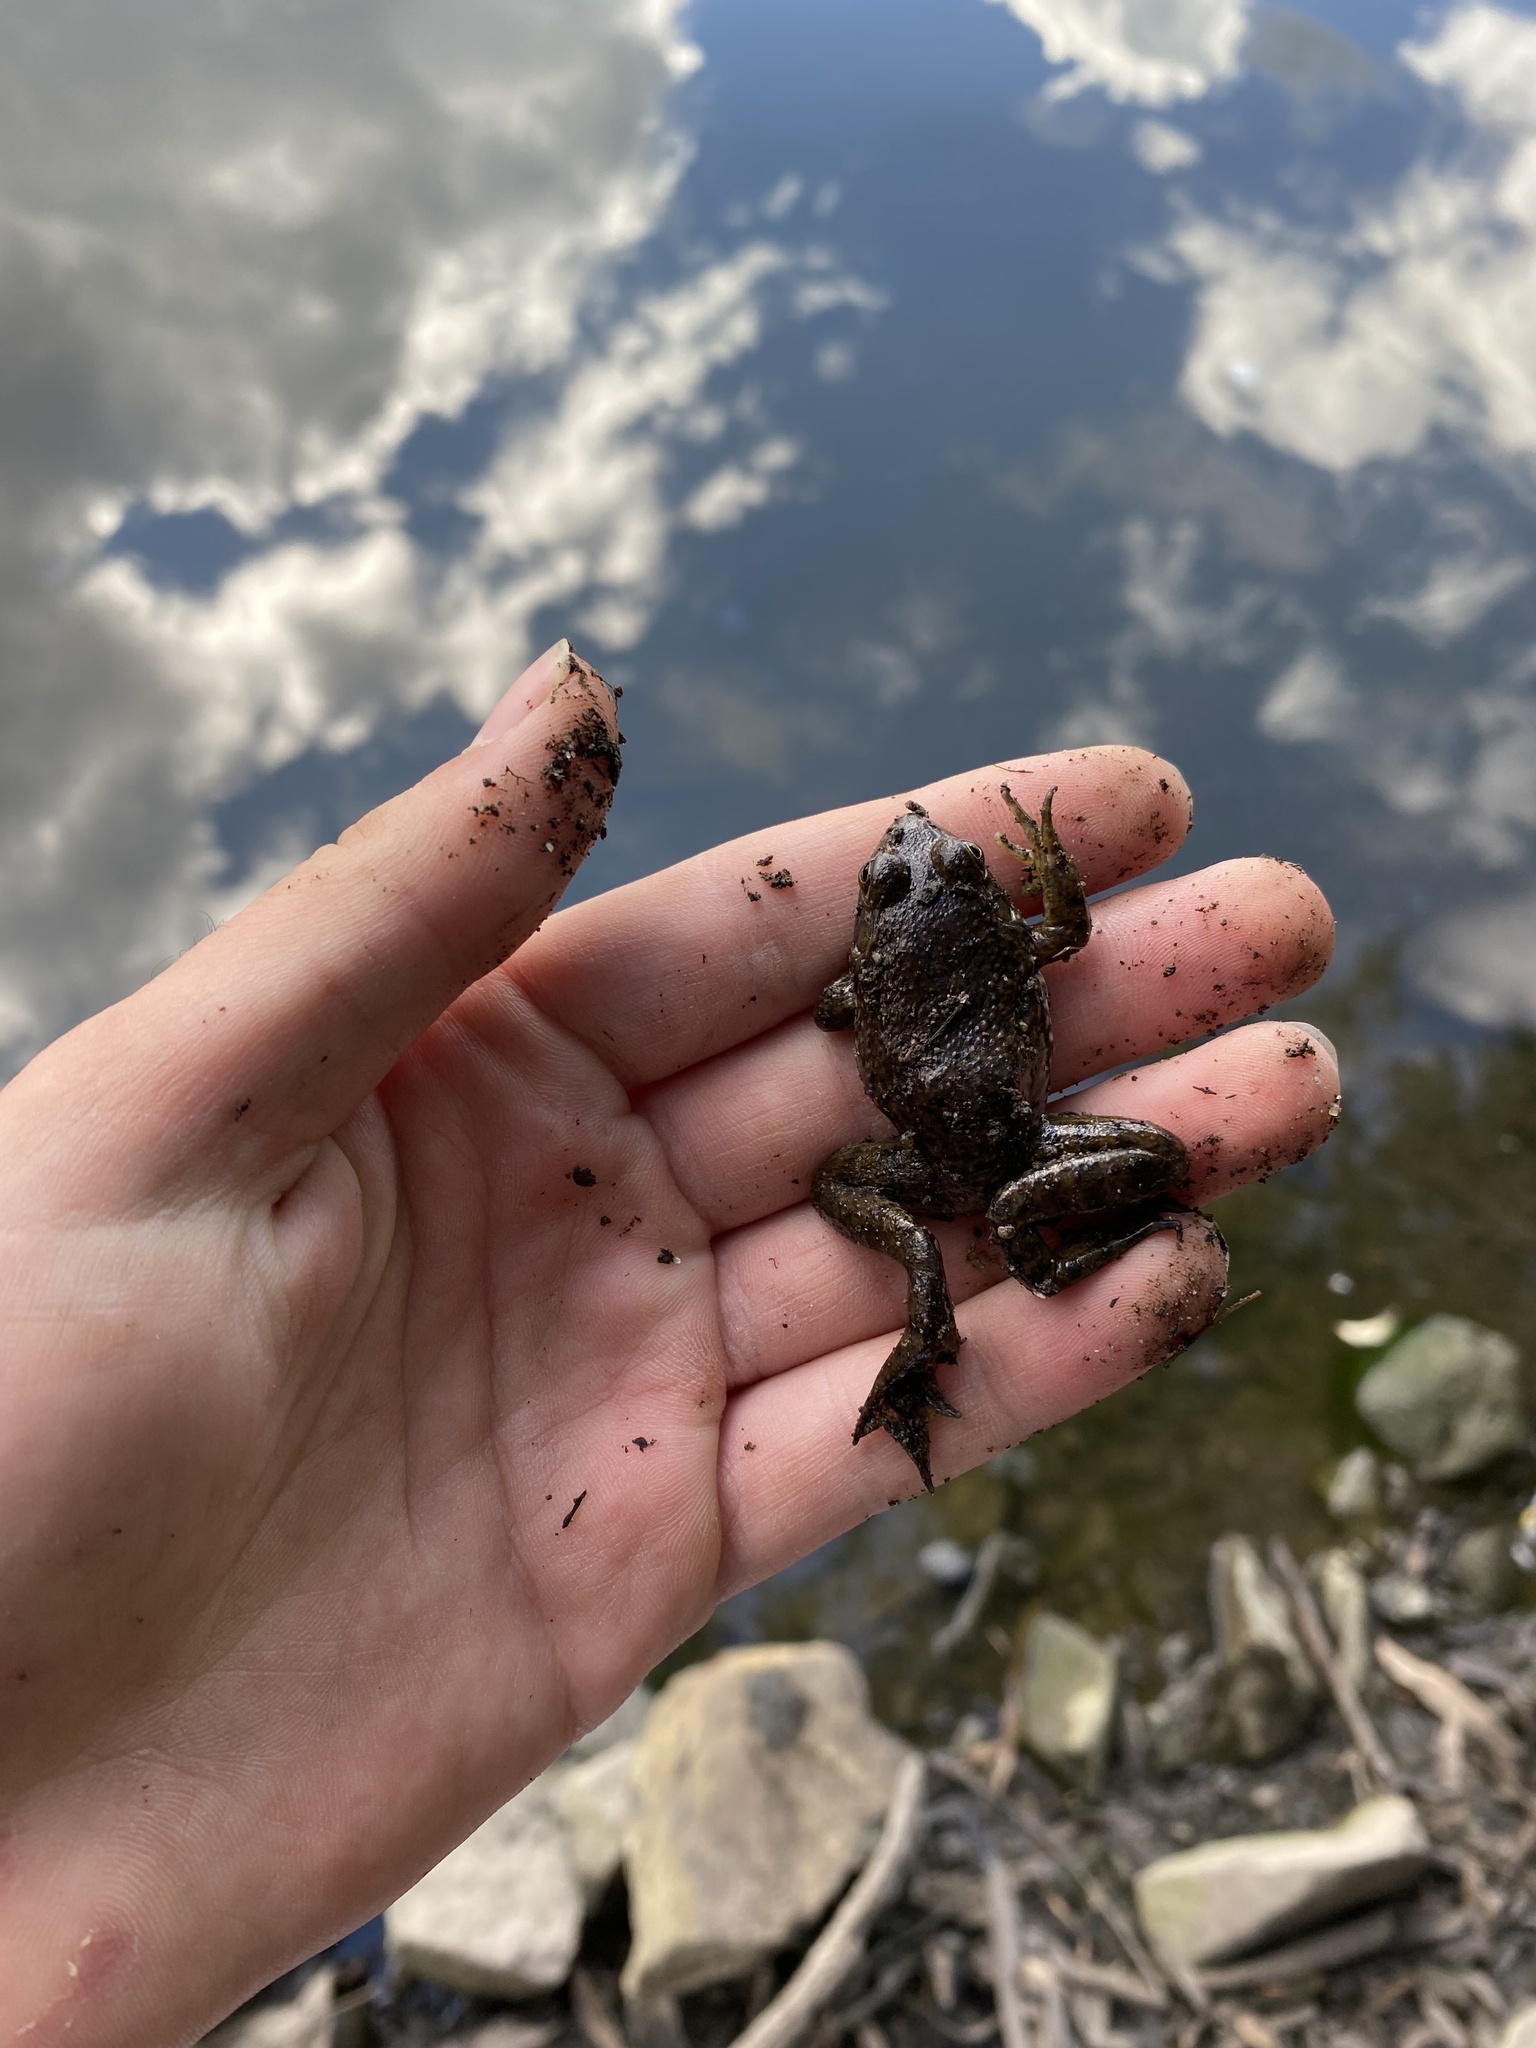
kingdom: Animalia
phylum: Chordata
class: Amphibia
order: Anura
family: Ranidae
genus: Lithobates
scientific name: Lithobates catesbeianus
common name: American bullfrog
